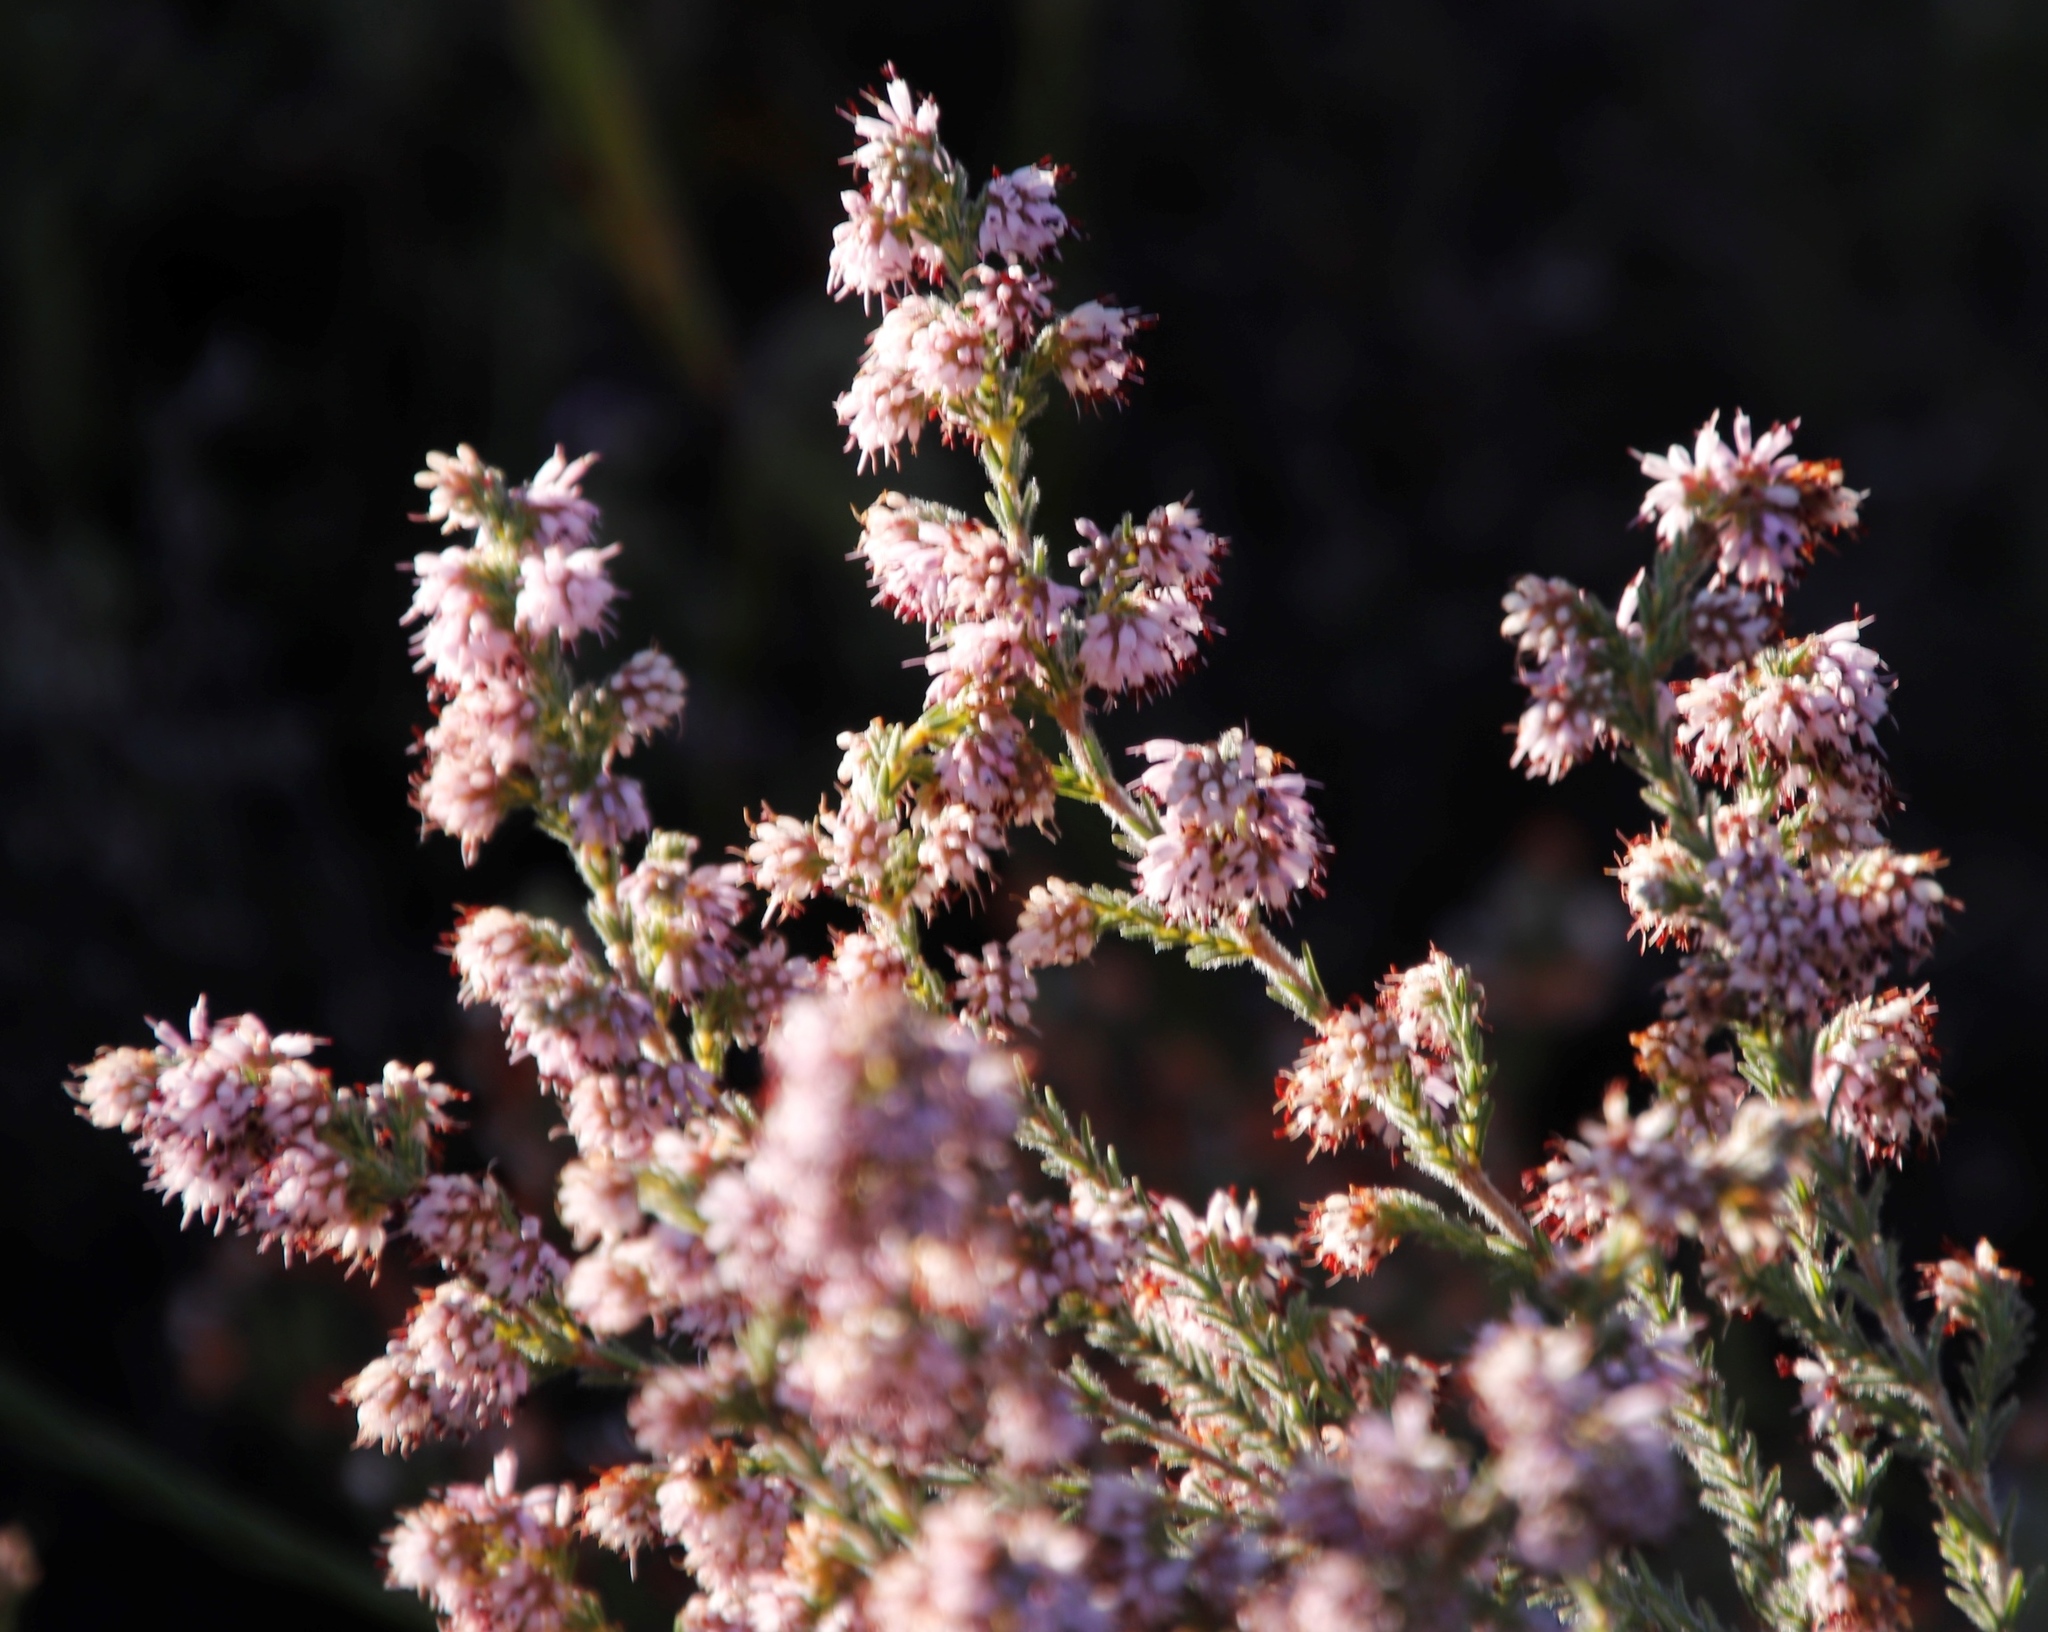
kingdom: Plantae
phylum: Tracheophyta
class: Magnoliopsida
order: Ericales
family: Ericaceae
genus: Erica
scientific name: Erica ericoides
